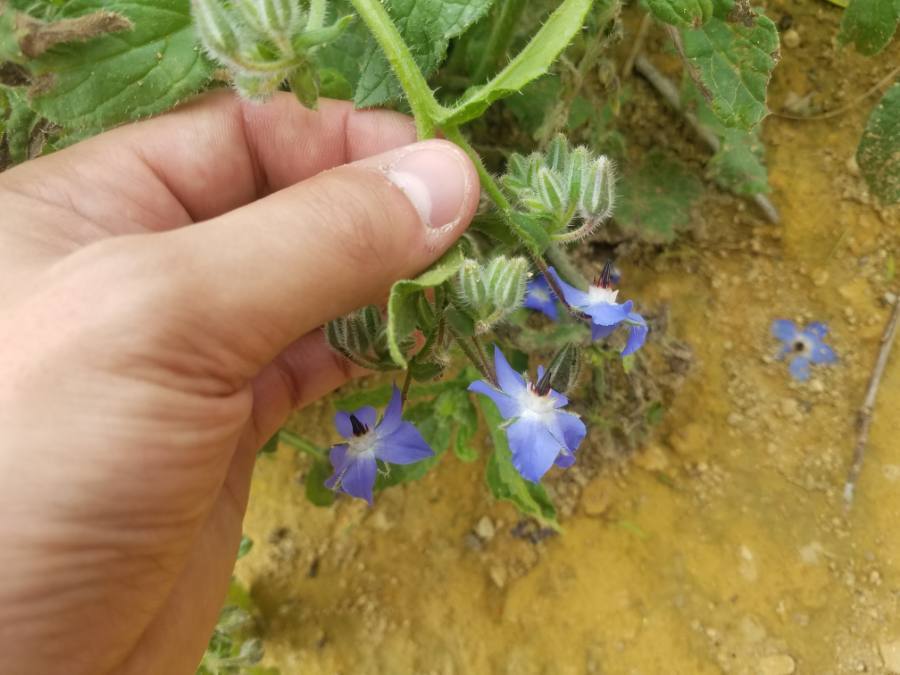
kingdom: Plantae
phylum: Tracheophyta
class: Magnoliopsida
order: Boraginales
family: Boraginaceae
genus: Borago
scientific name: Borago officinalis
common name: Borage
